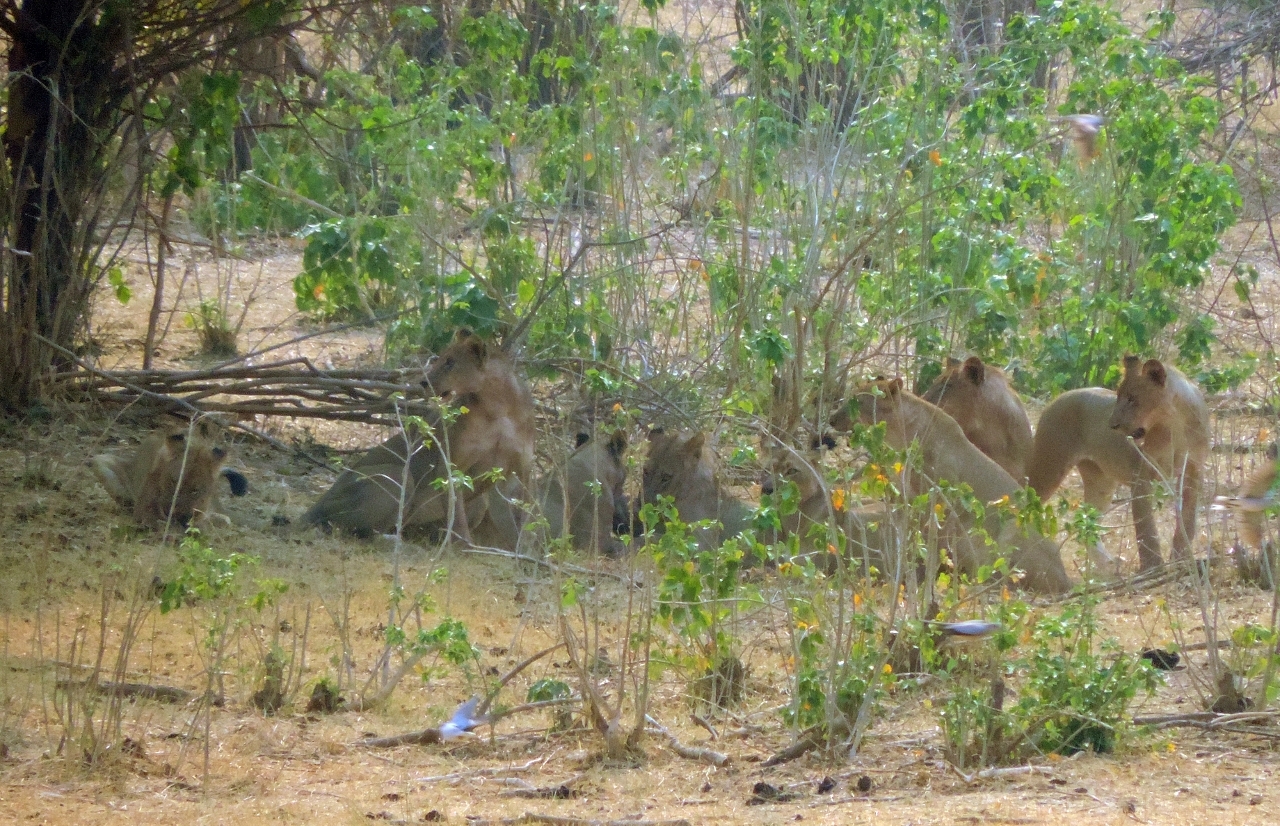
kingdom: Animalia
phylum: Chordata
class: Mammalia
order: Carnivora
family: Felidae
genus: Panthera
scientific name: Panthera leo
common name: Lion
